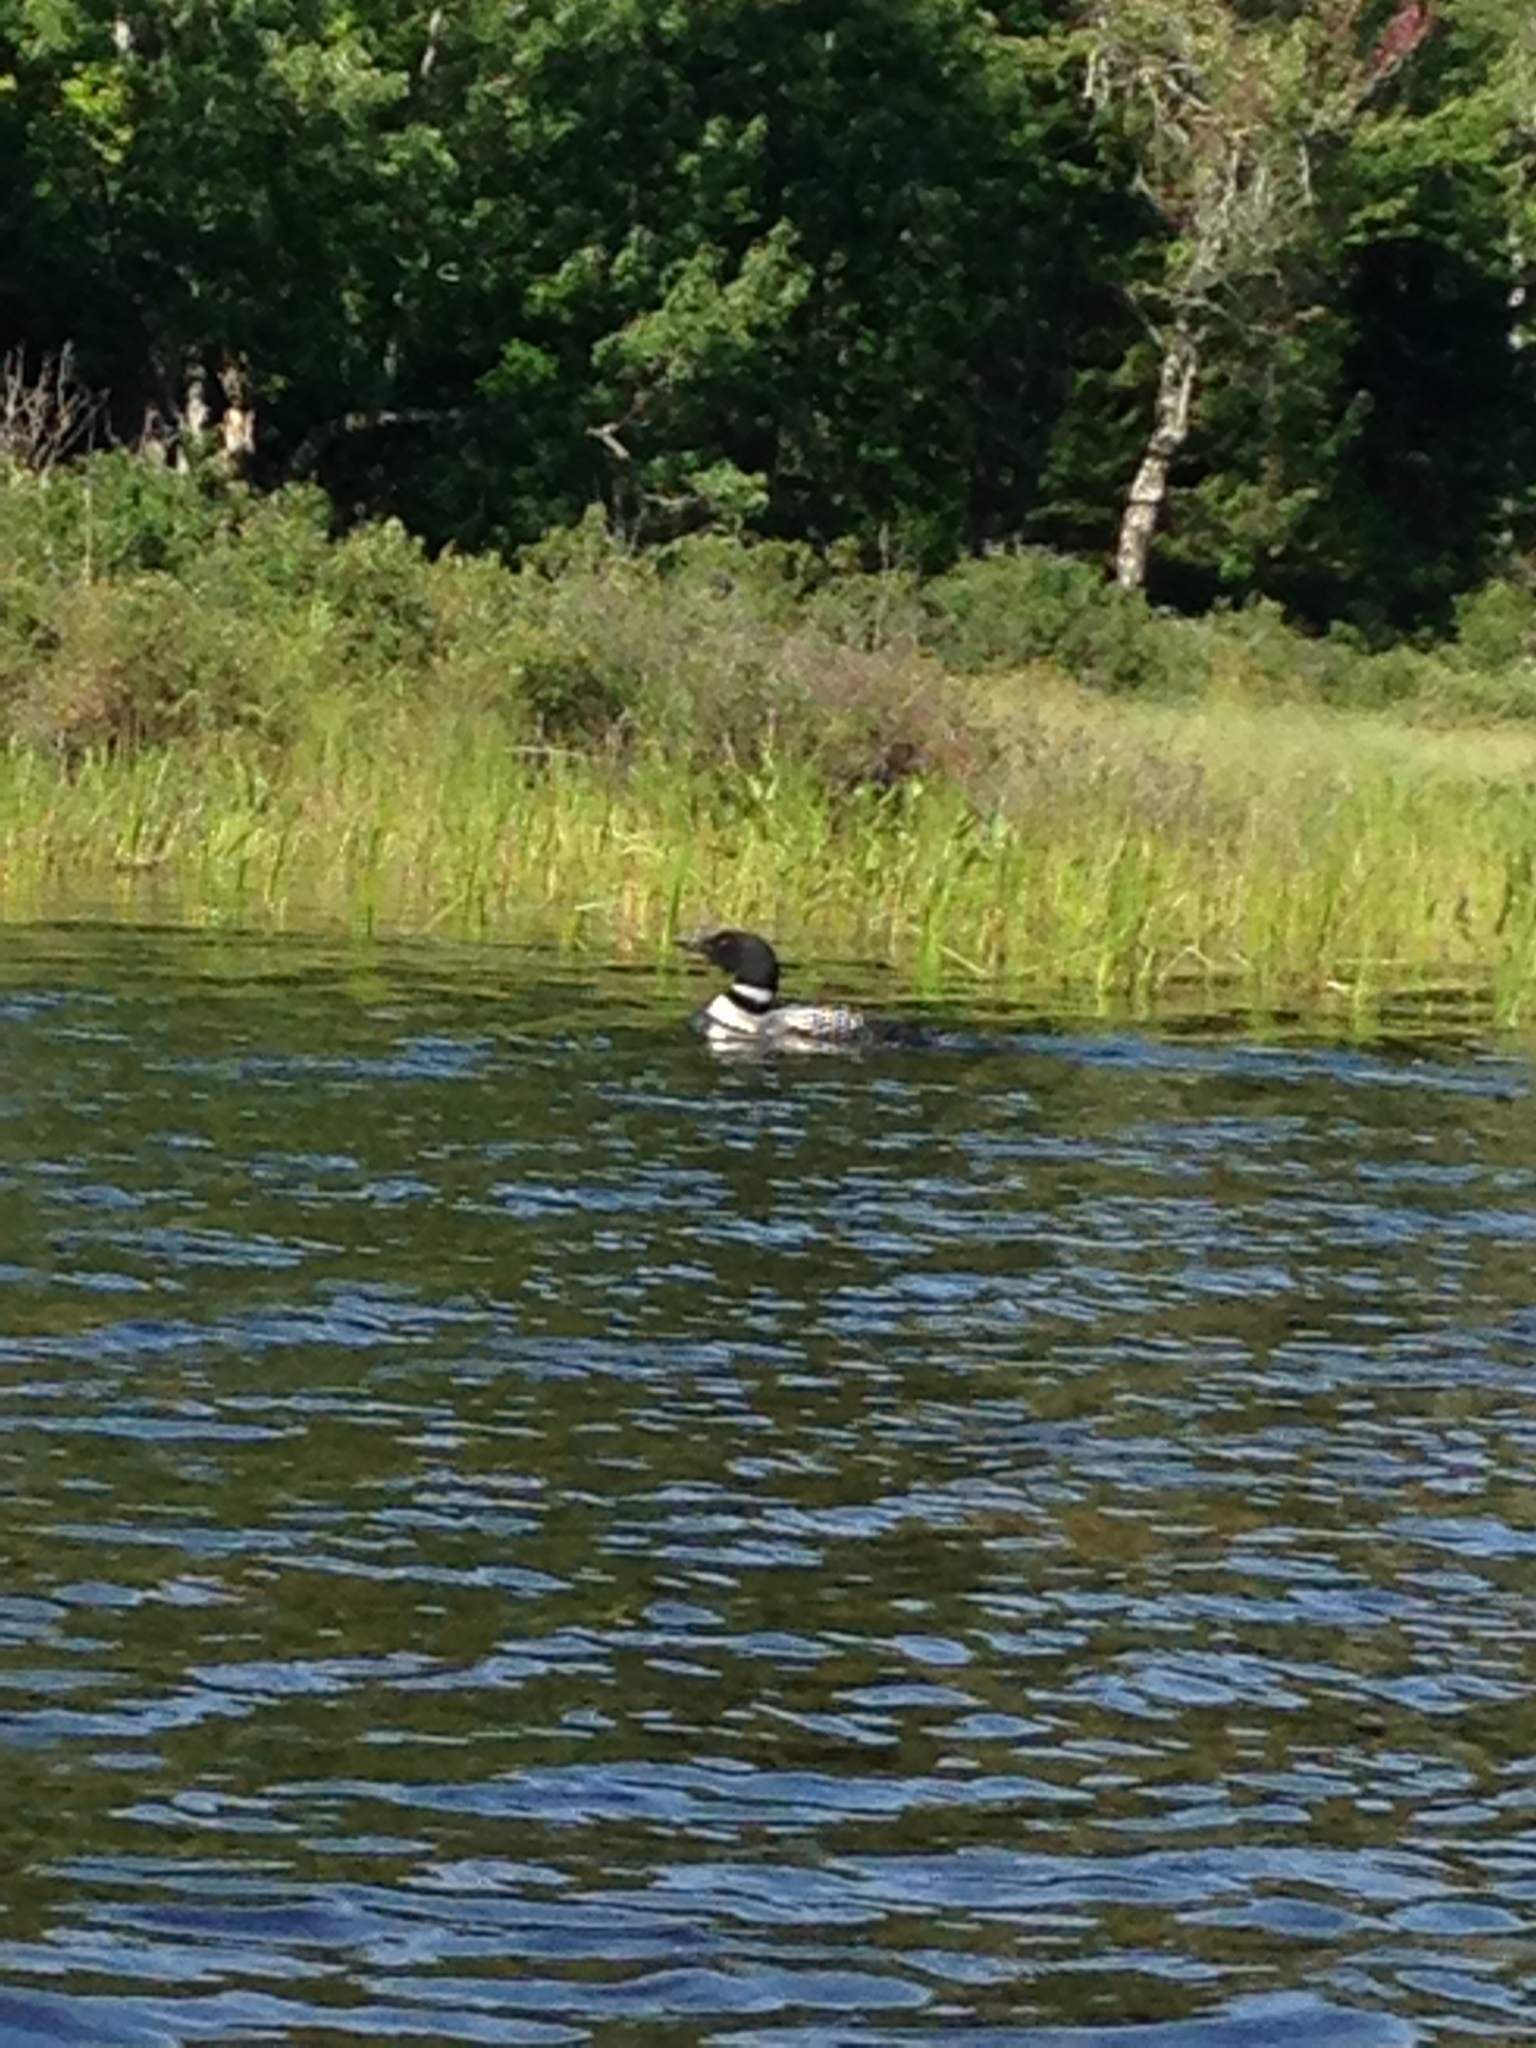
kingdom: Animalia
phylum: Chordata
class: Aves
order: Gaviiformes
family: Gaviidae
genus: Gavia
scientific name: Gavia immer
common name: Common loon
